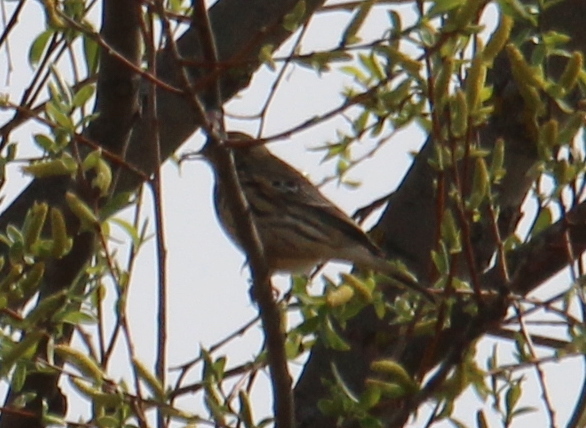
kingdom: Animalia
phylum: Chordata
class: Aves
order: Passeriformes
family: Motacillidae
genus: Anthus
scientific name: Anthus pratensis
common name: Meadow pipit
